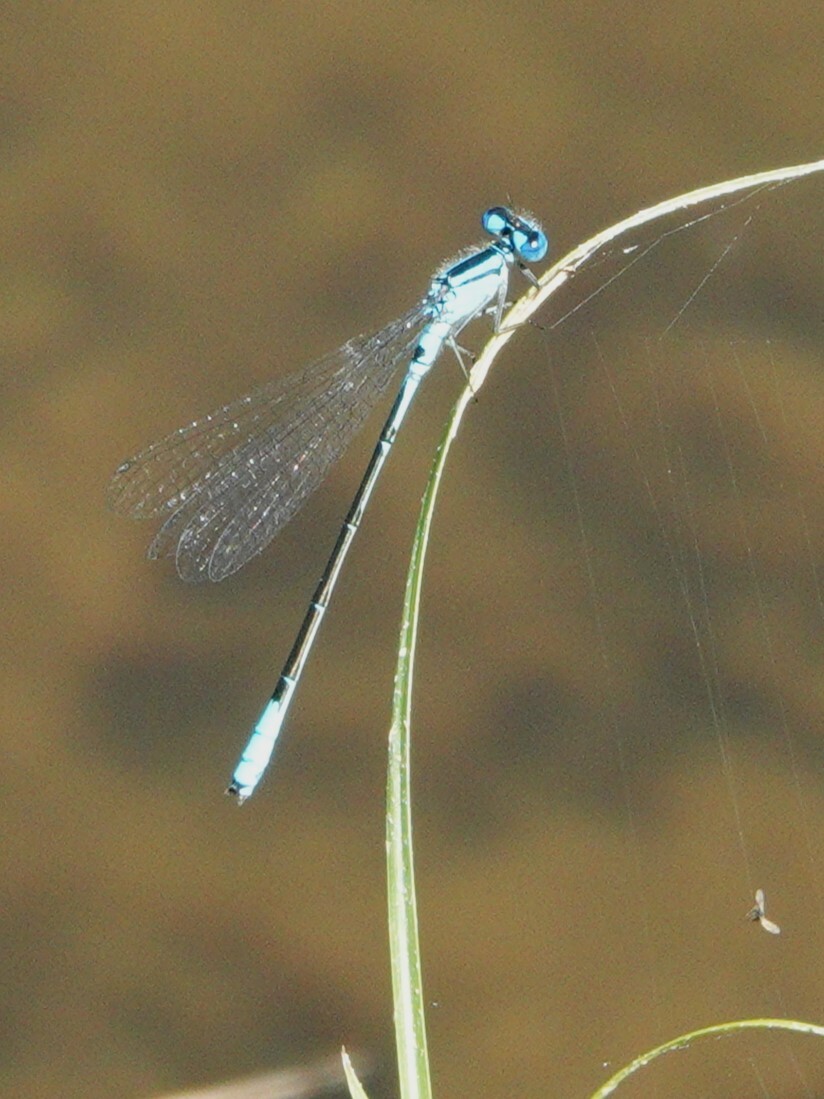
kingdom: Animalia
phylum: Arthropoda
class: Insecta
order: Odonata
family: Coenagrionidae
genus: Enallagma
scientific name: Enallagma aspersum
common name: Azure bluet
